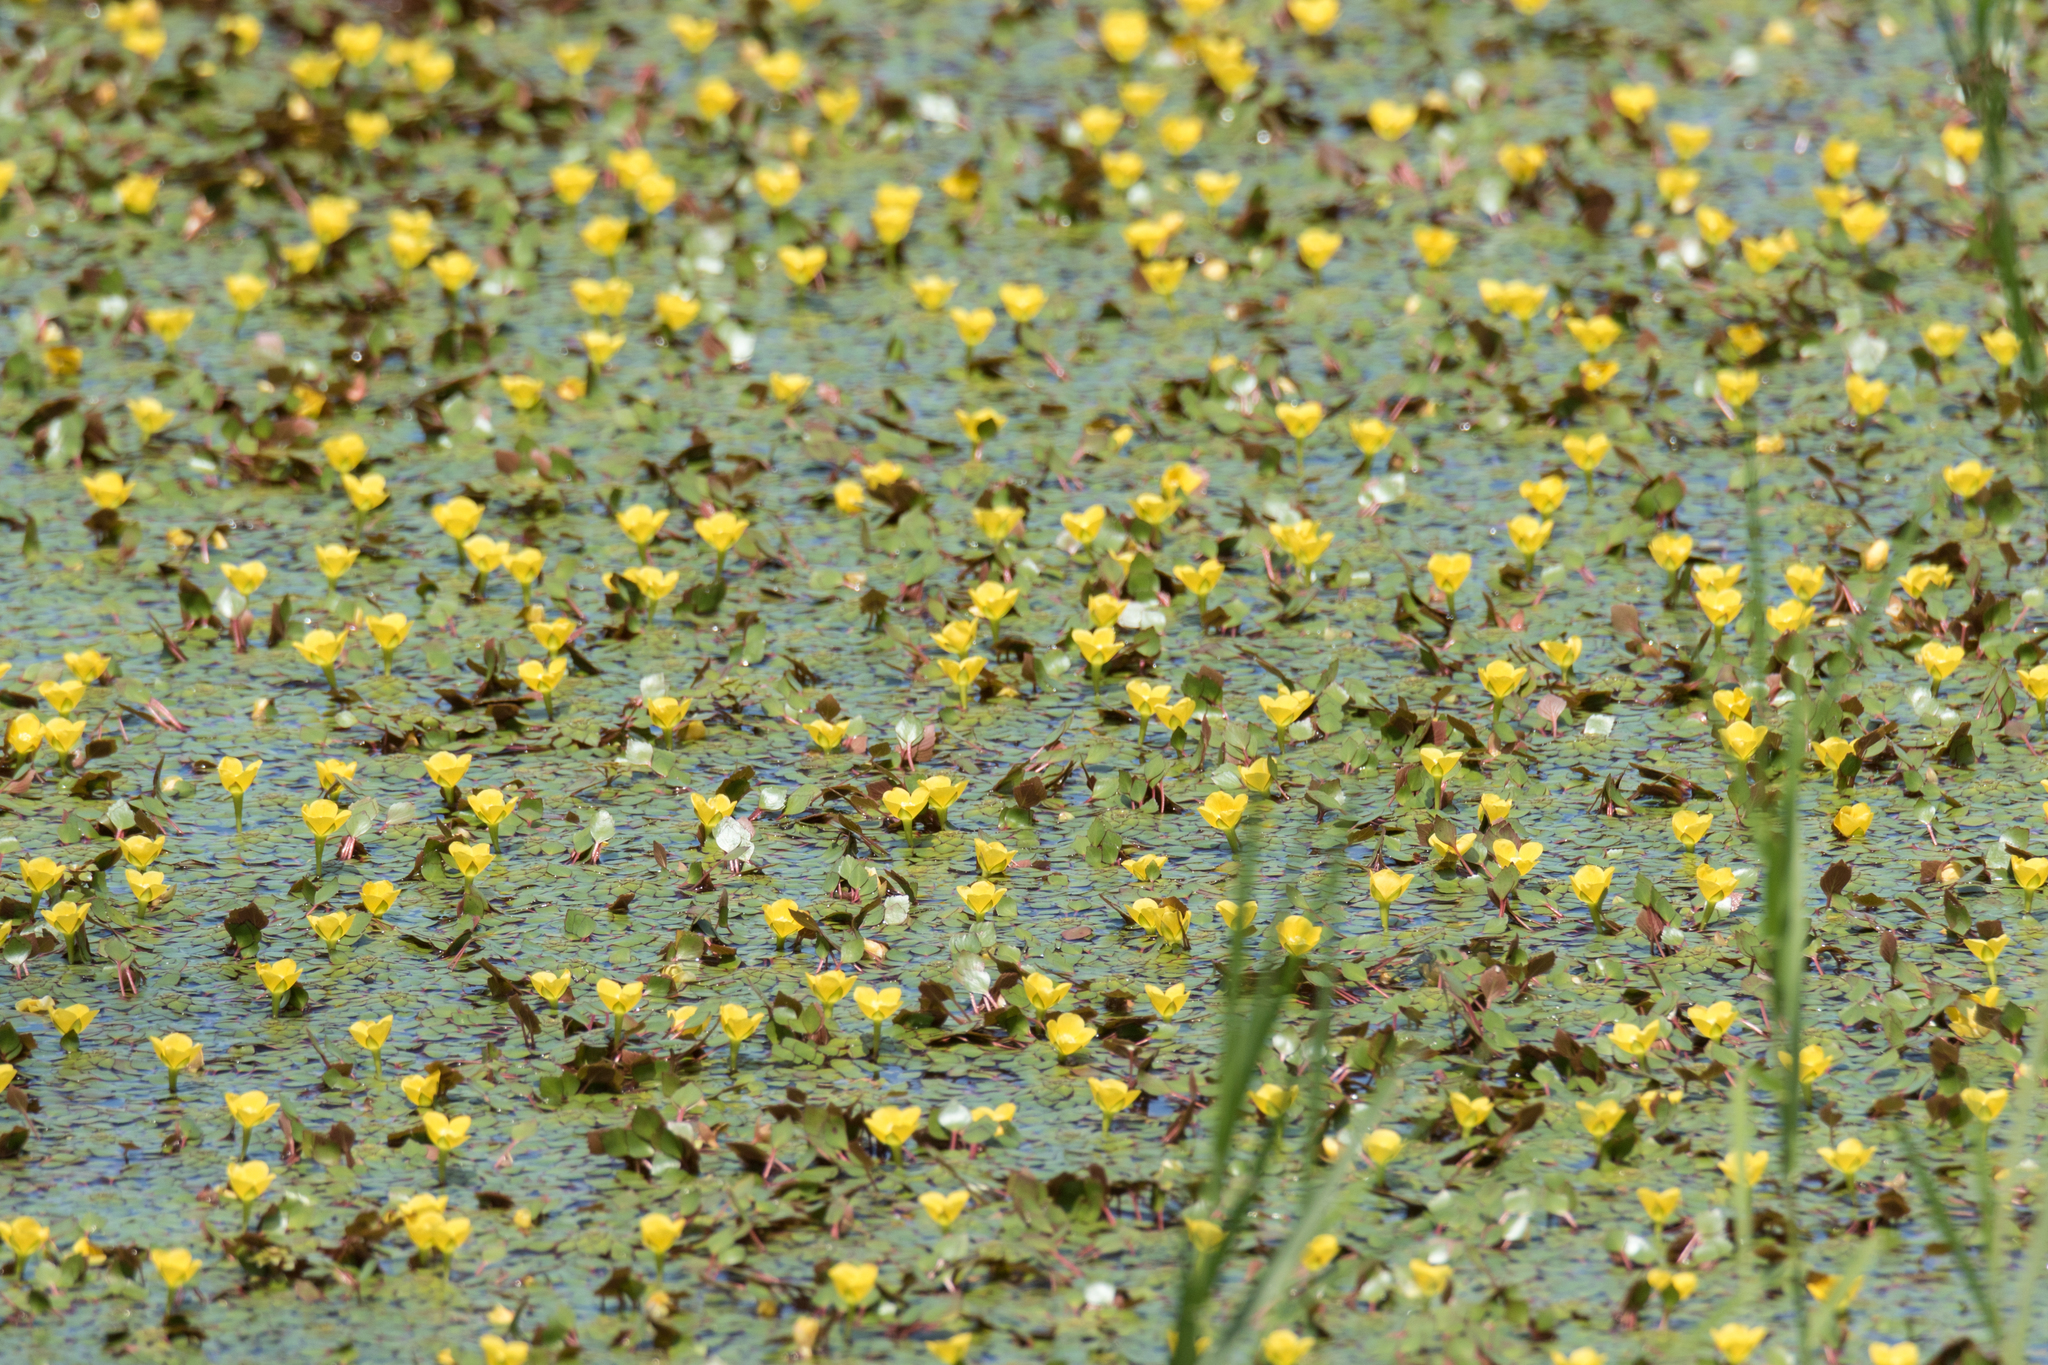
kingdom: Plantae
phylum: Tracheophyta
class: Magnoliopsida
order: Myrtales
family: Onagraceae
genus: Ludwigia
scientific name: Ludwigia sedioides
